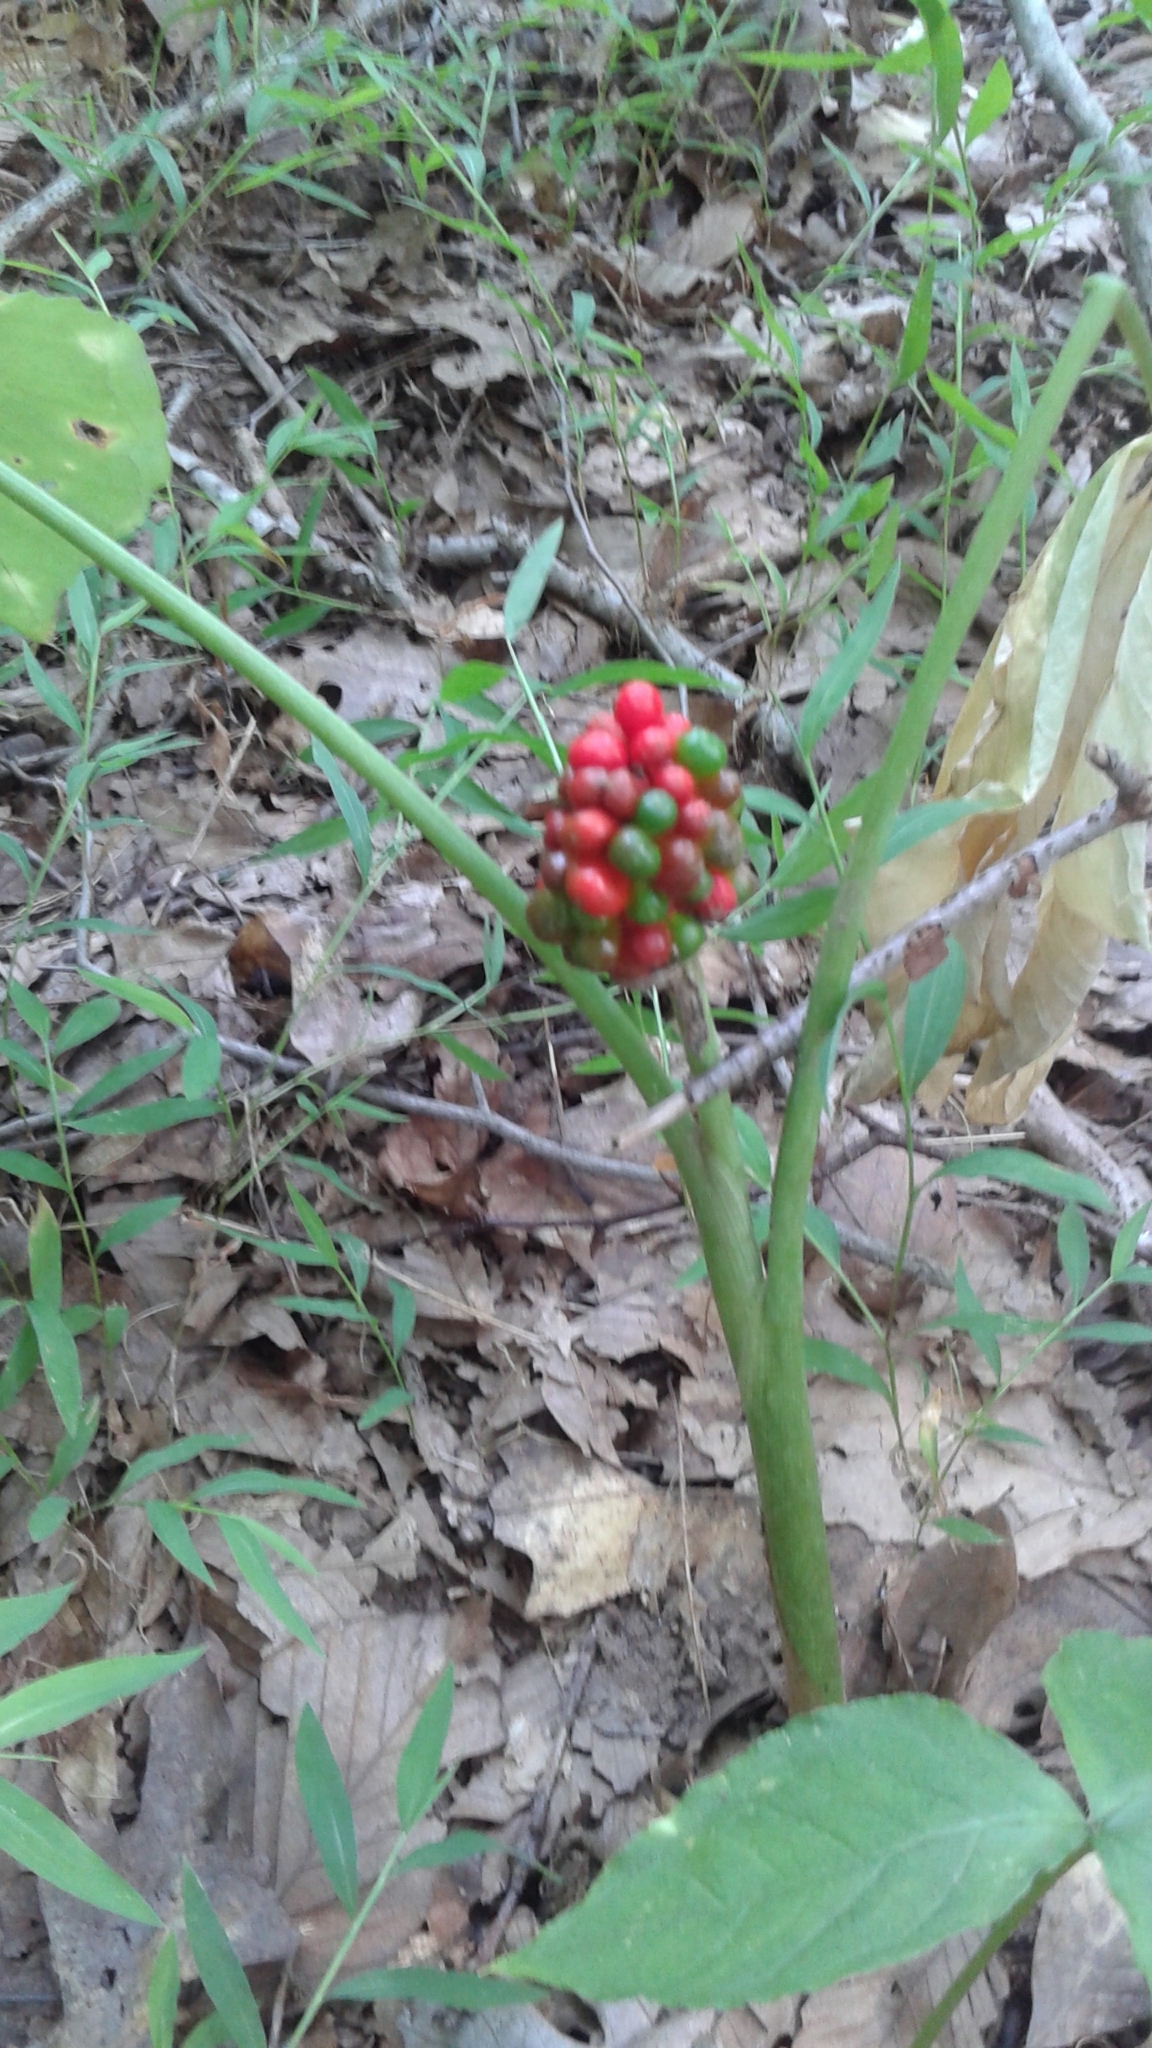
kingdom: Plantae
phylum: Tracheophyta
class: Liliopsida
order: Alismatales
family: Araceae
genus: Arisaema
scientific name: Arisaema triphyllum
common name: Jack-in-the-pulpit
